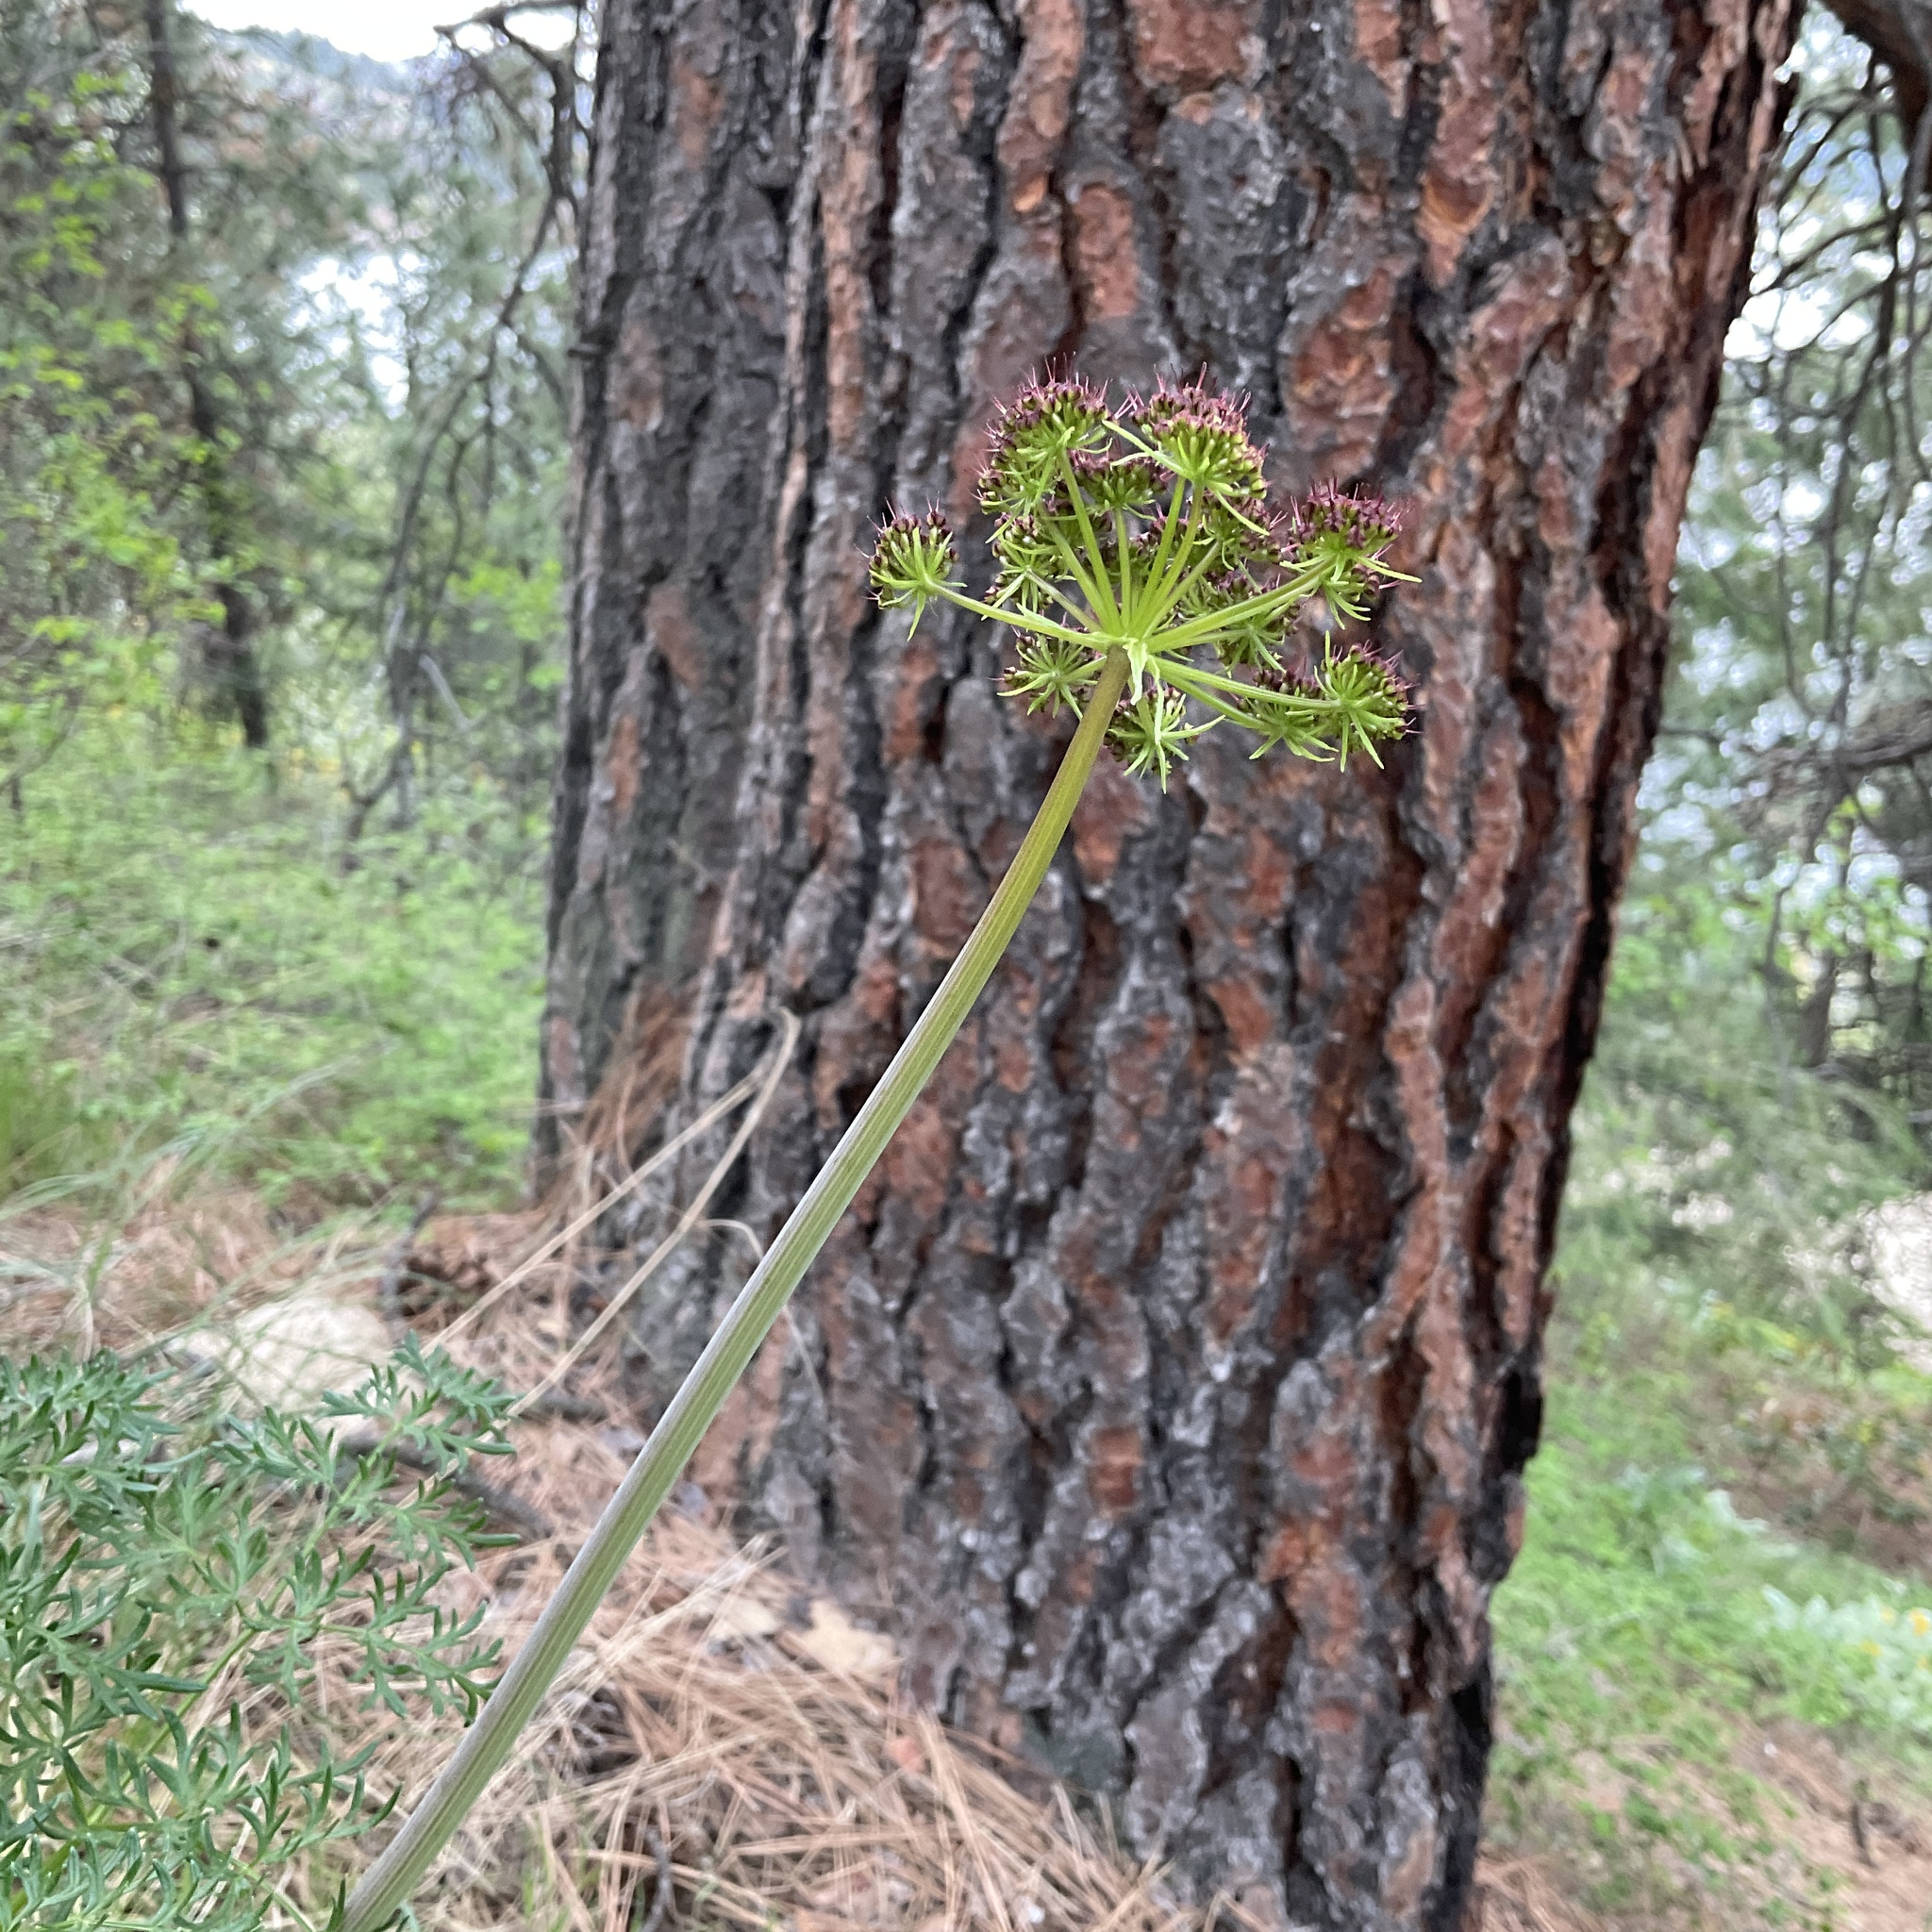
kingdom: Plantae
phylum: Tracheophyta
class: Magnoliopsida
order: Apiales
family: Apiaceae
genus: Lomatium
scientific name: Lomatium multifidum
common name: Carrot-leaved biscuitroot
